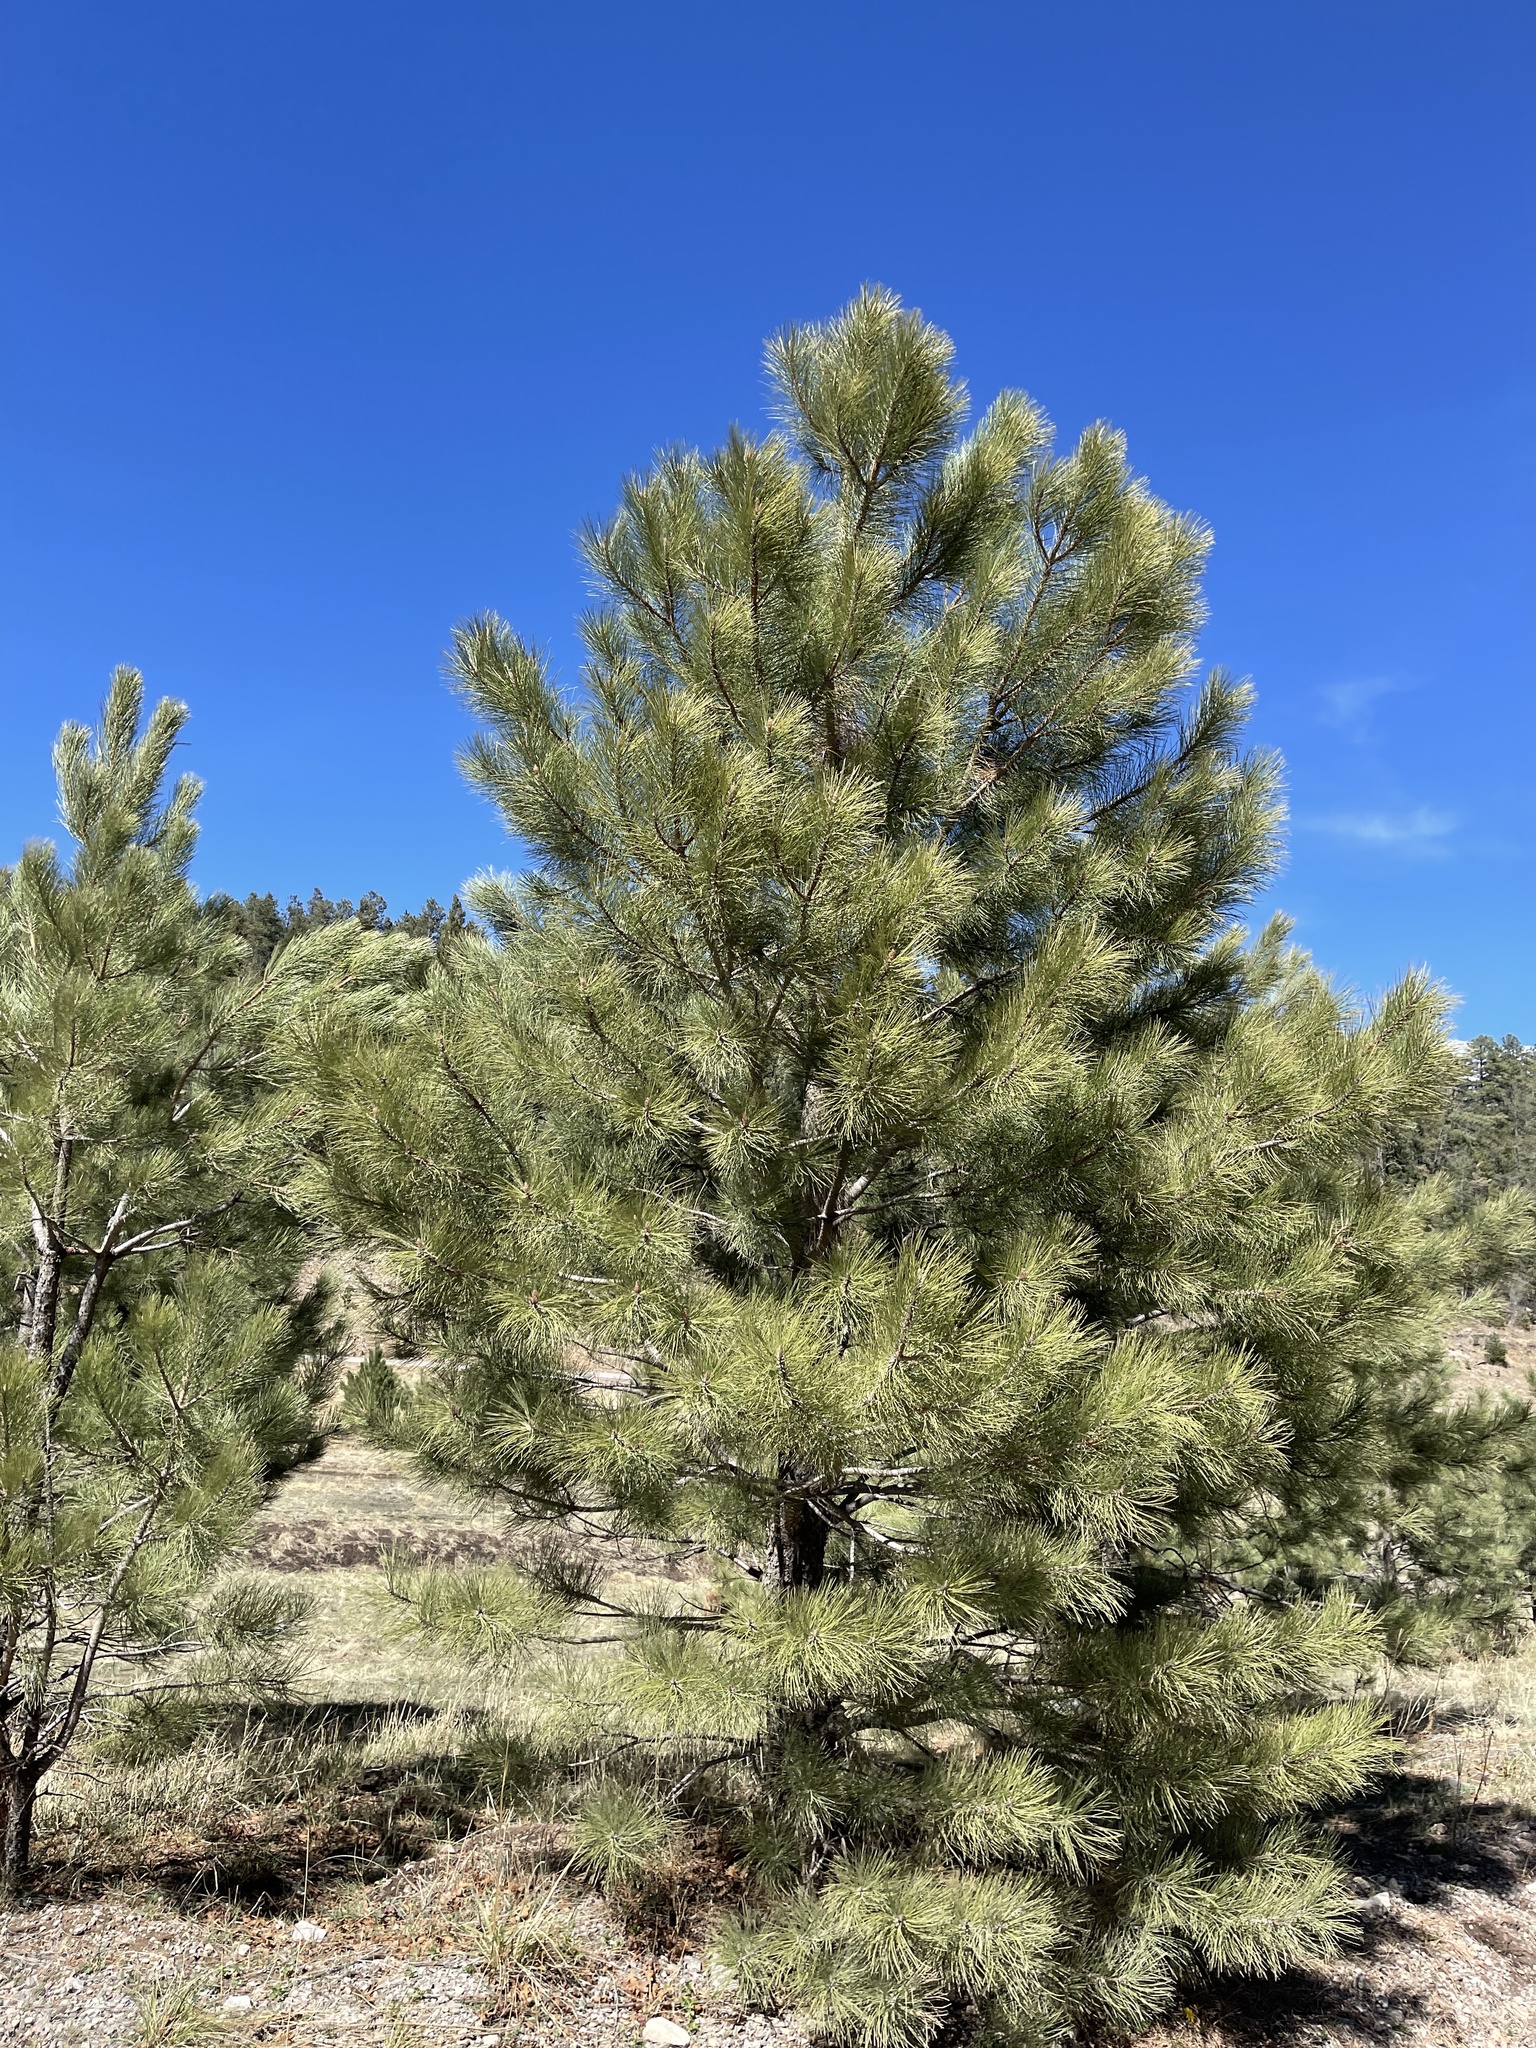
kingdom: Plantae
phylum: Tracheophyta
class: Pinopsida
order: Pinales
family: Pinaceae
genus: Pinus
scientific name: Pinus ponderosa
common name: Western yellow-pine
